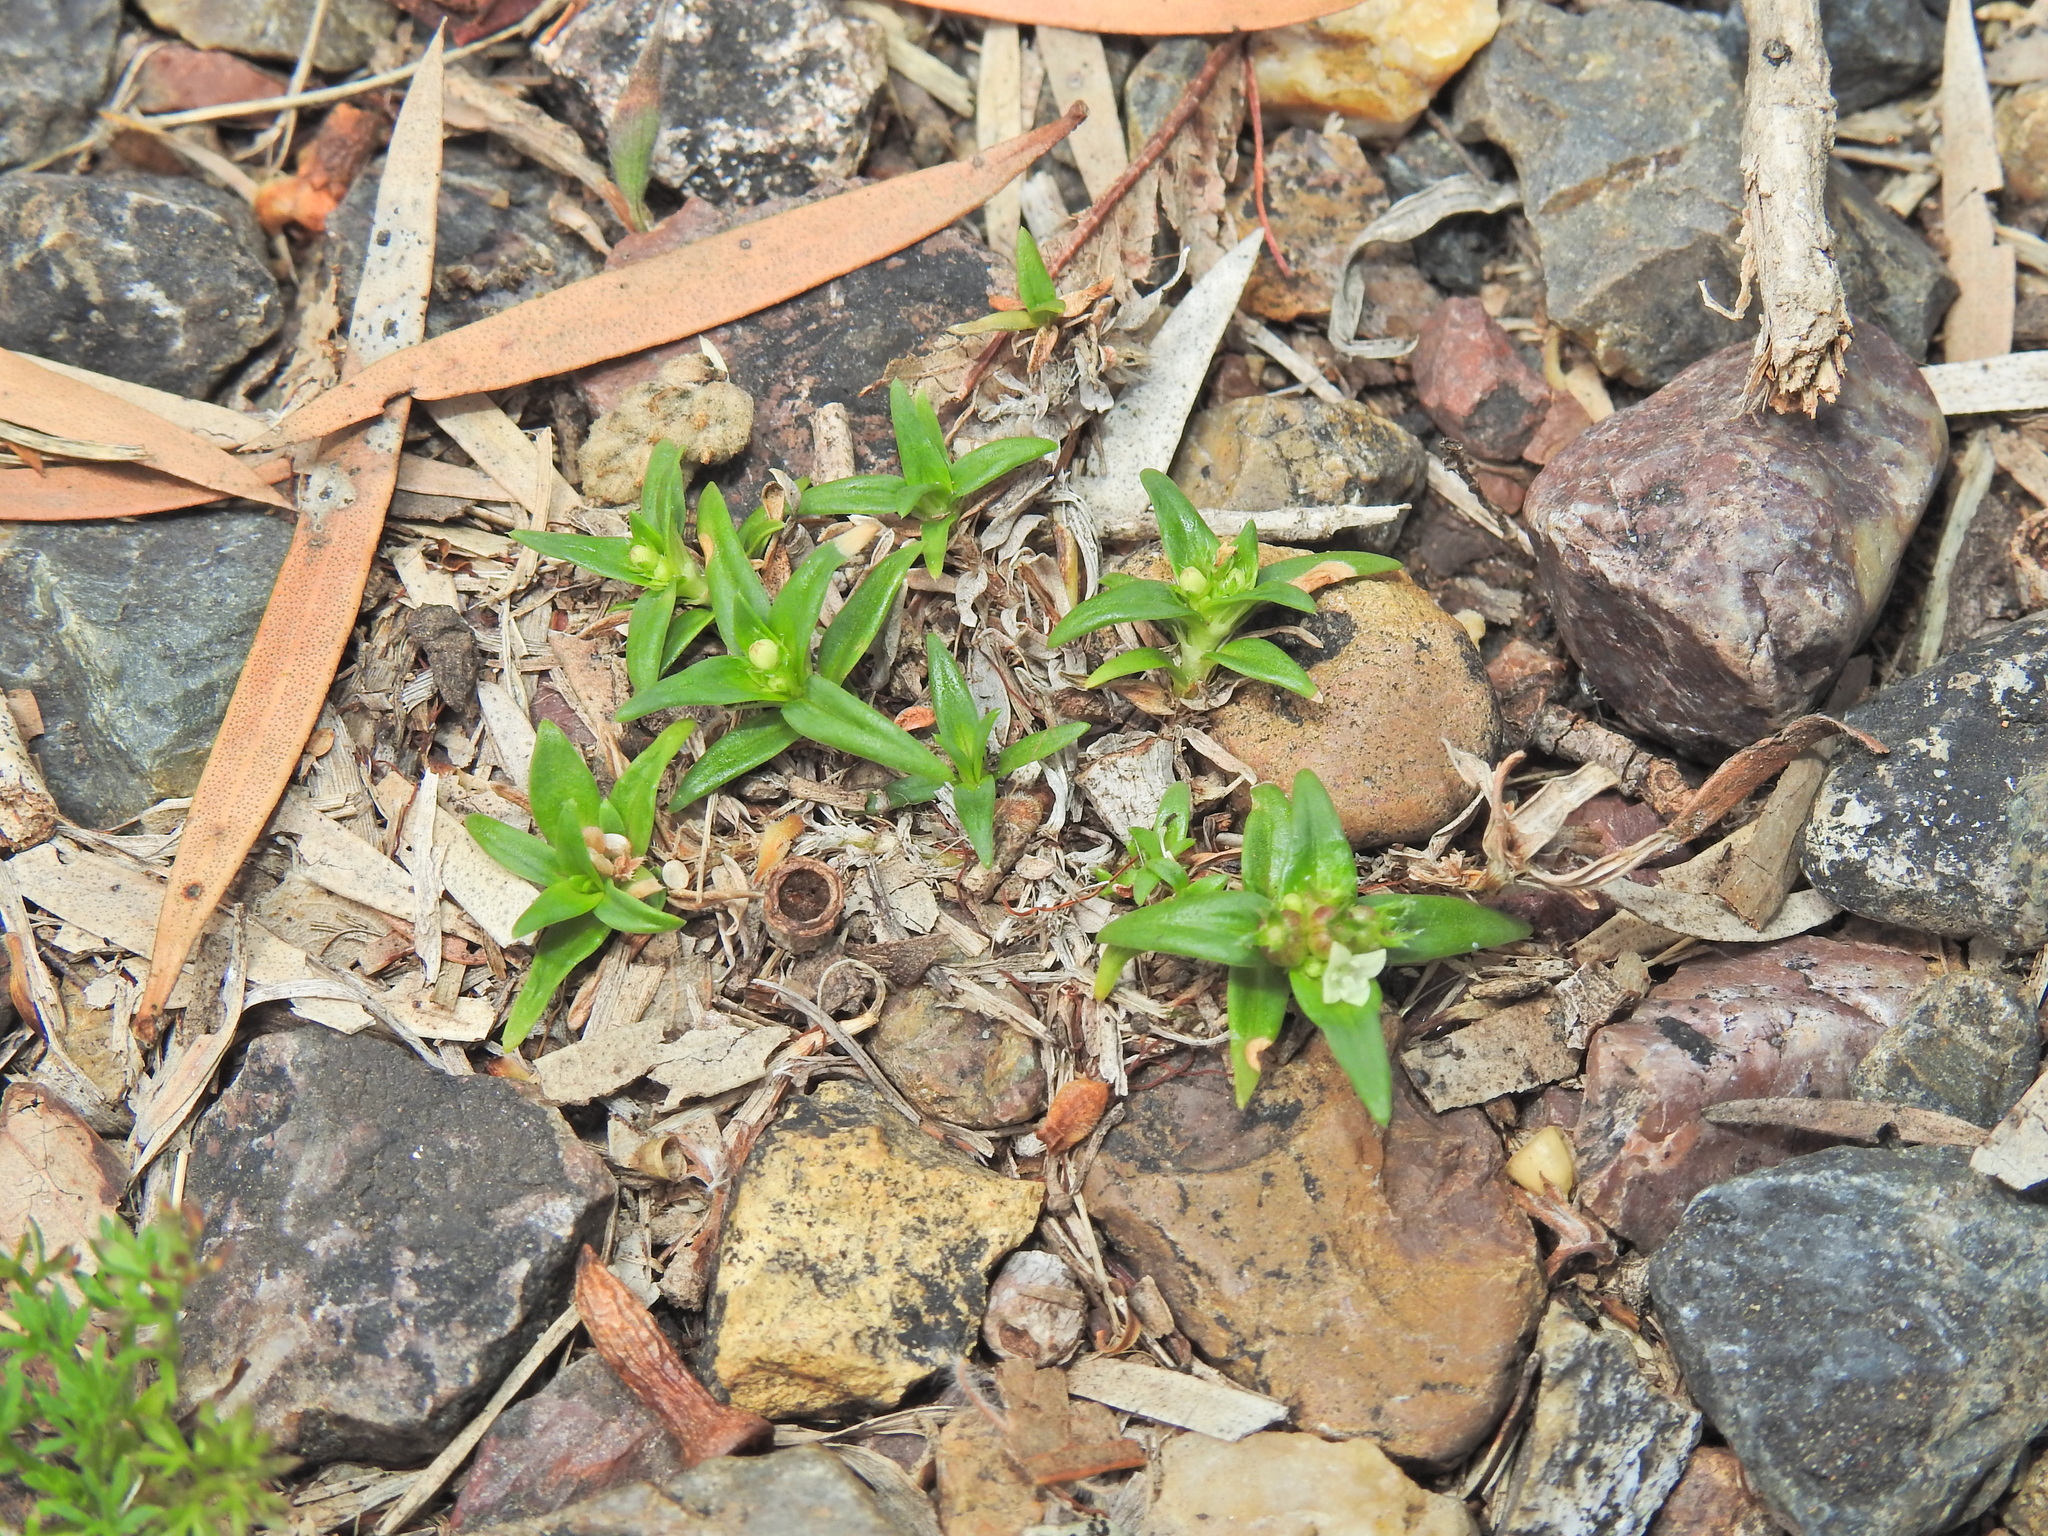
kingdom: Plantae
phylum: Tracheophyta
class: Magnoliopsida
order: Gentianales
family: Rubiaceae
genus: Richardia
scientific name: Richardia stellaris
